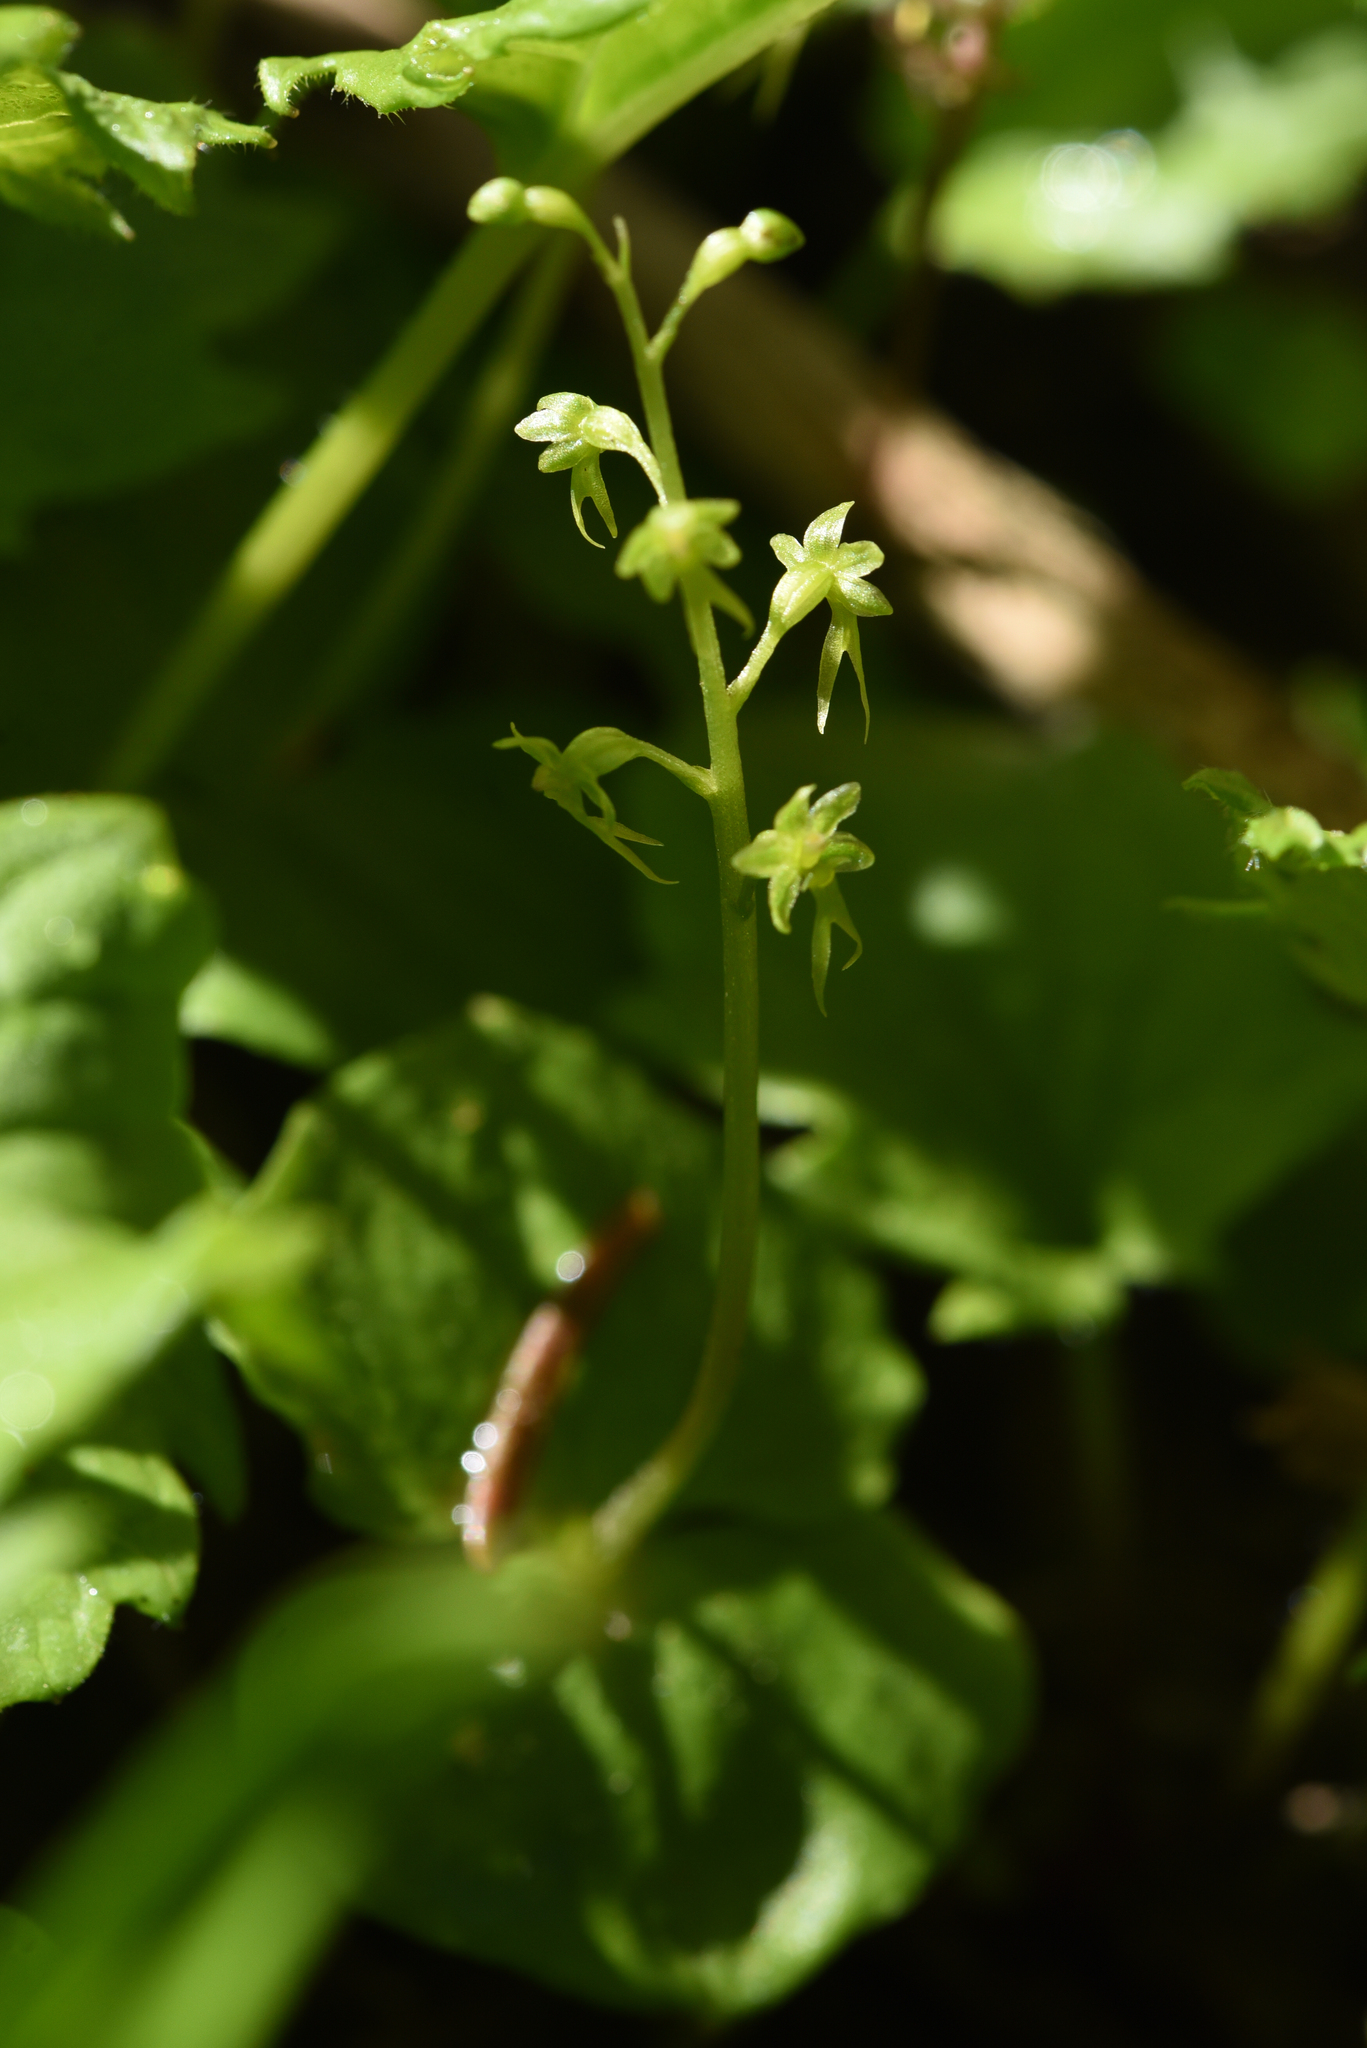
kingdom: Plantae
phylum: Tracheophyta
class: Liliopsida
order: Asparagales
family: Orchidaceae
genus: Neottia
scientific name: Neottia cordata
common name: Lesser twayblade
